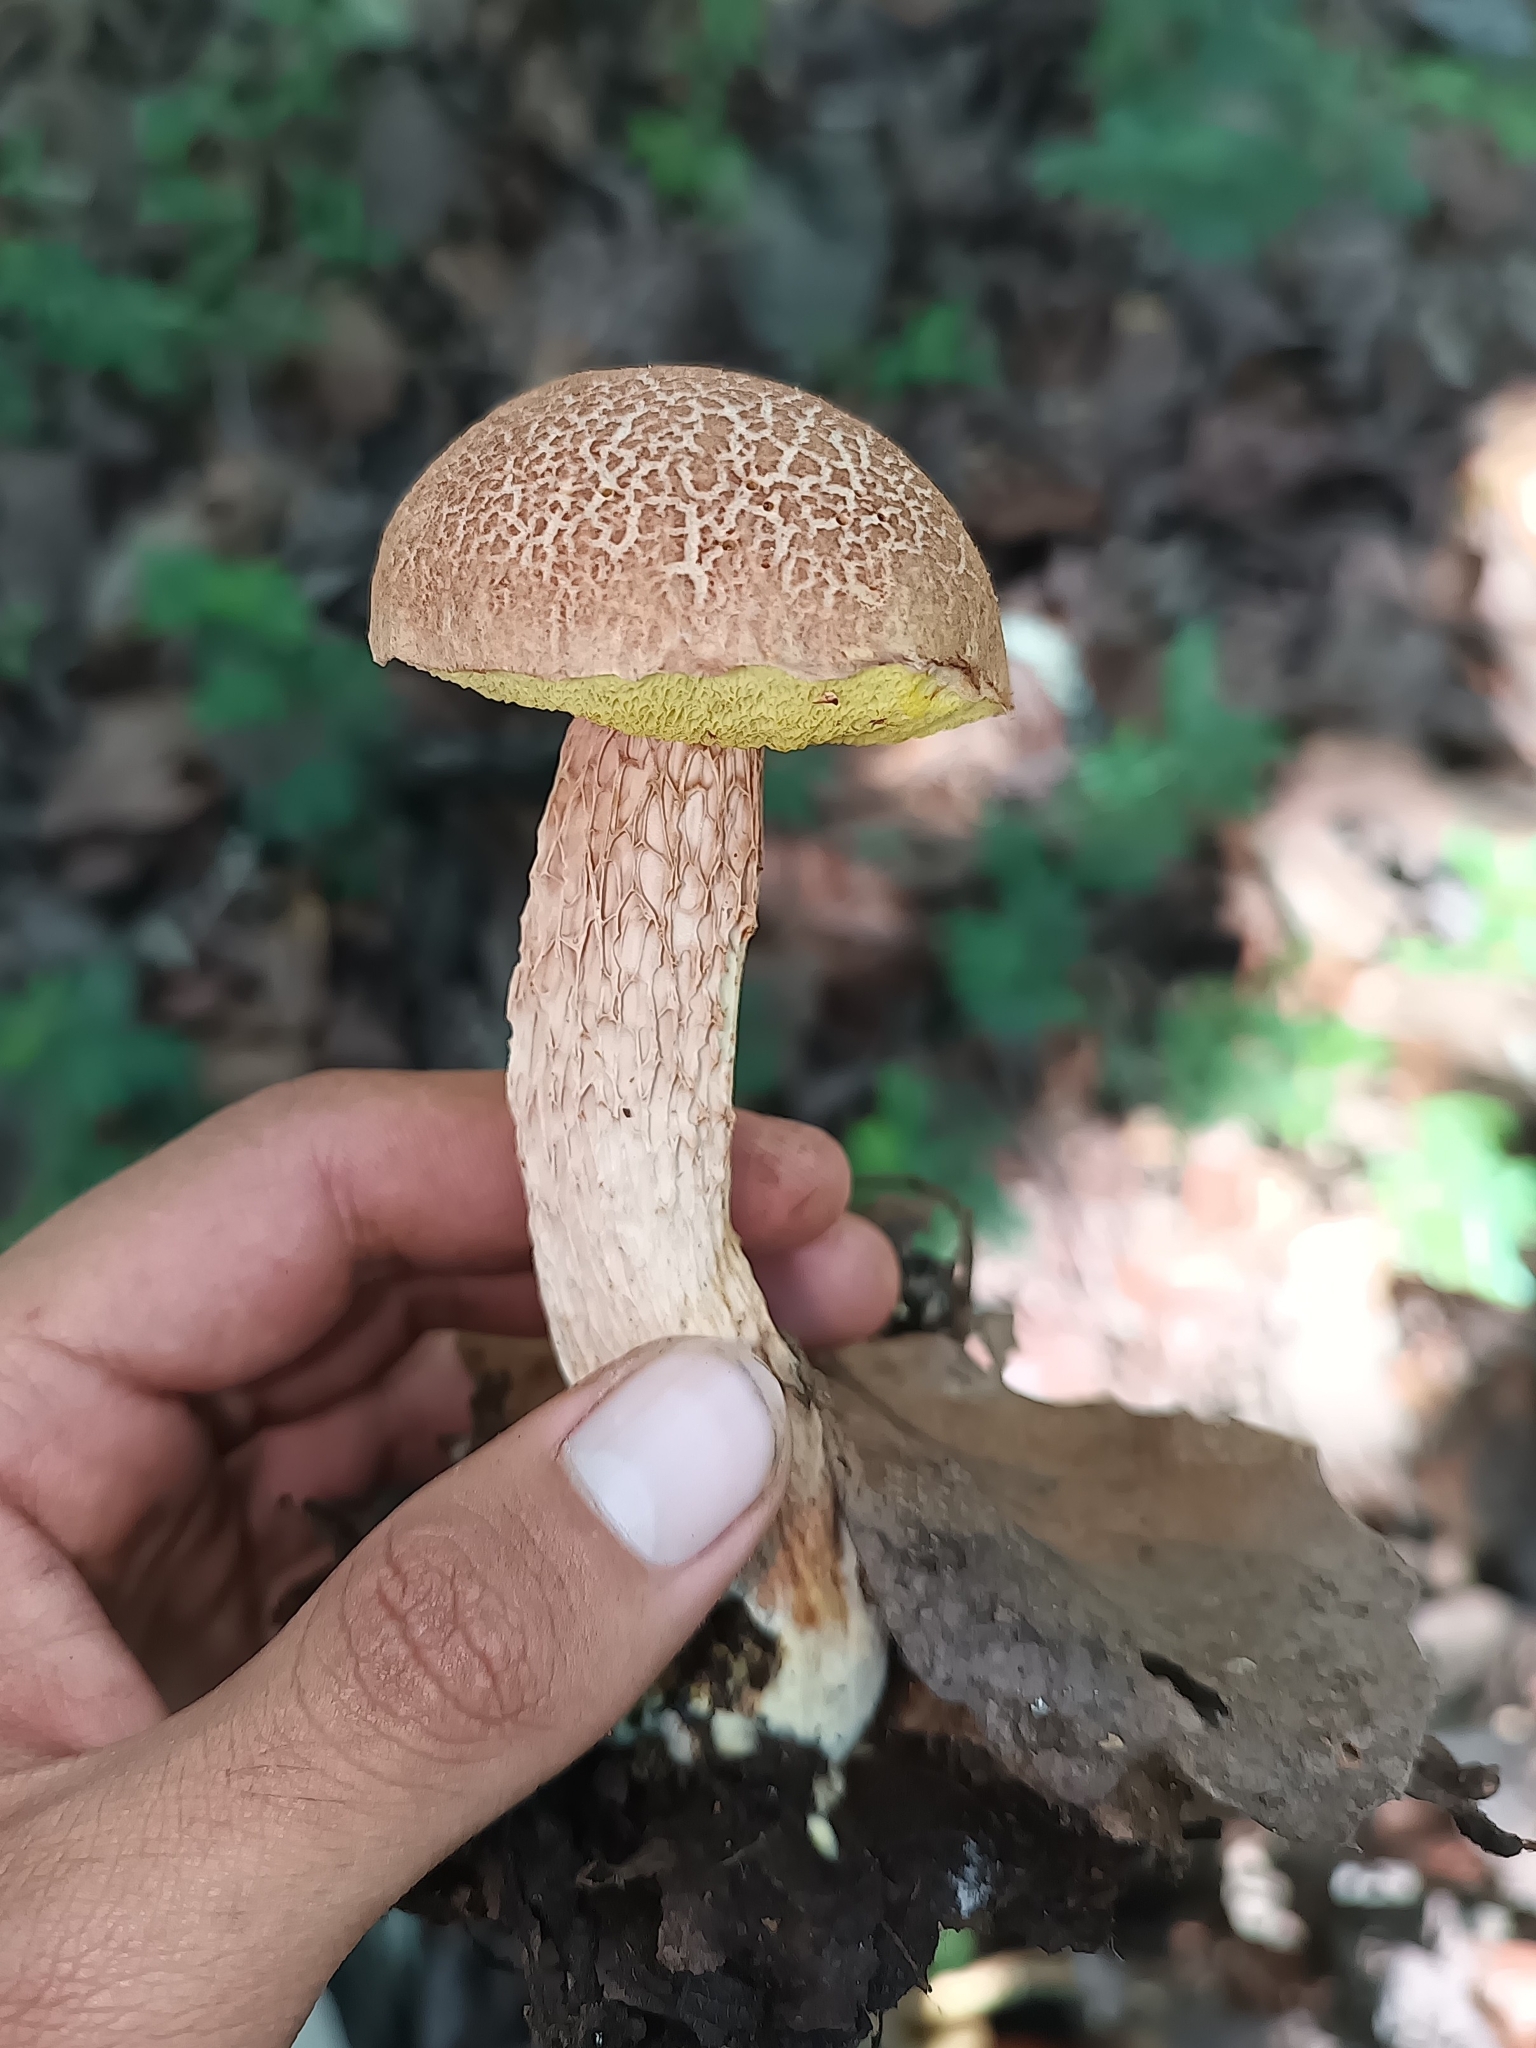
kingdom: Fungi
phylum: Basidiomycota
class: Agaricomycetes
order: Boletales
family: Boletaceae
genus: Aureoboletus
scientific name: Aureoboletus russellii
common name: Russell's bolete
